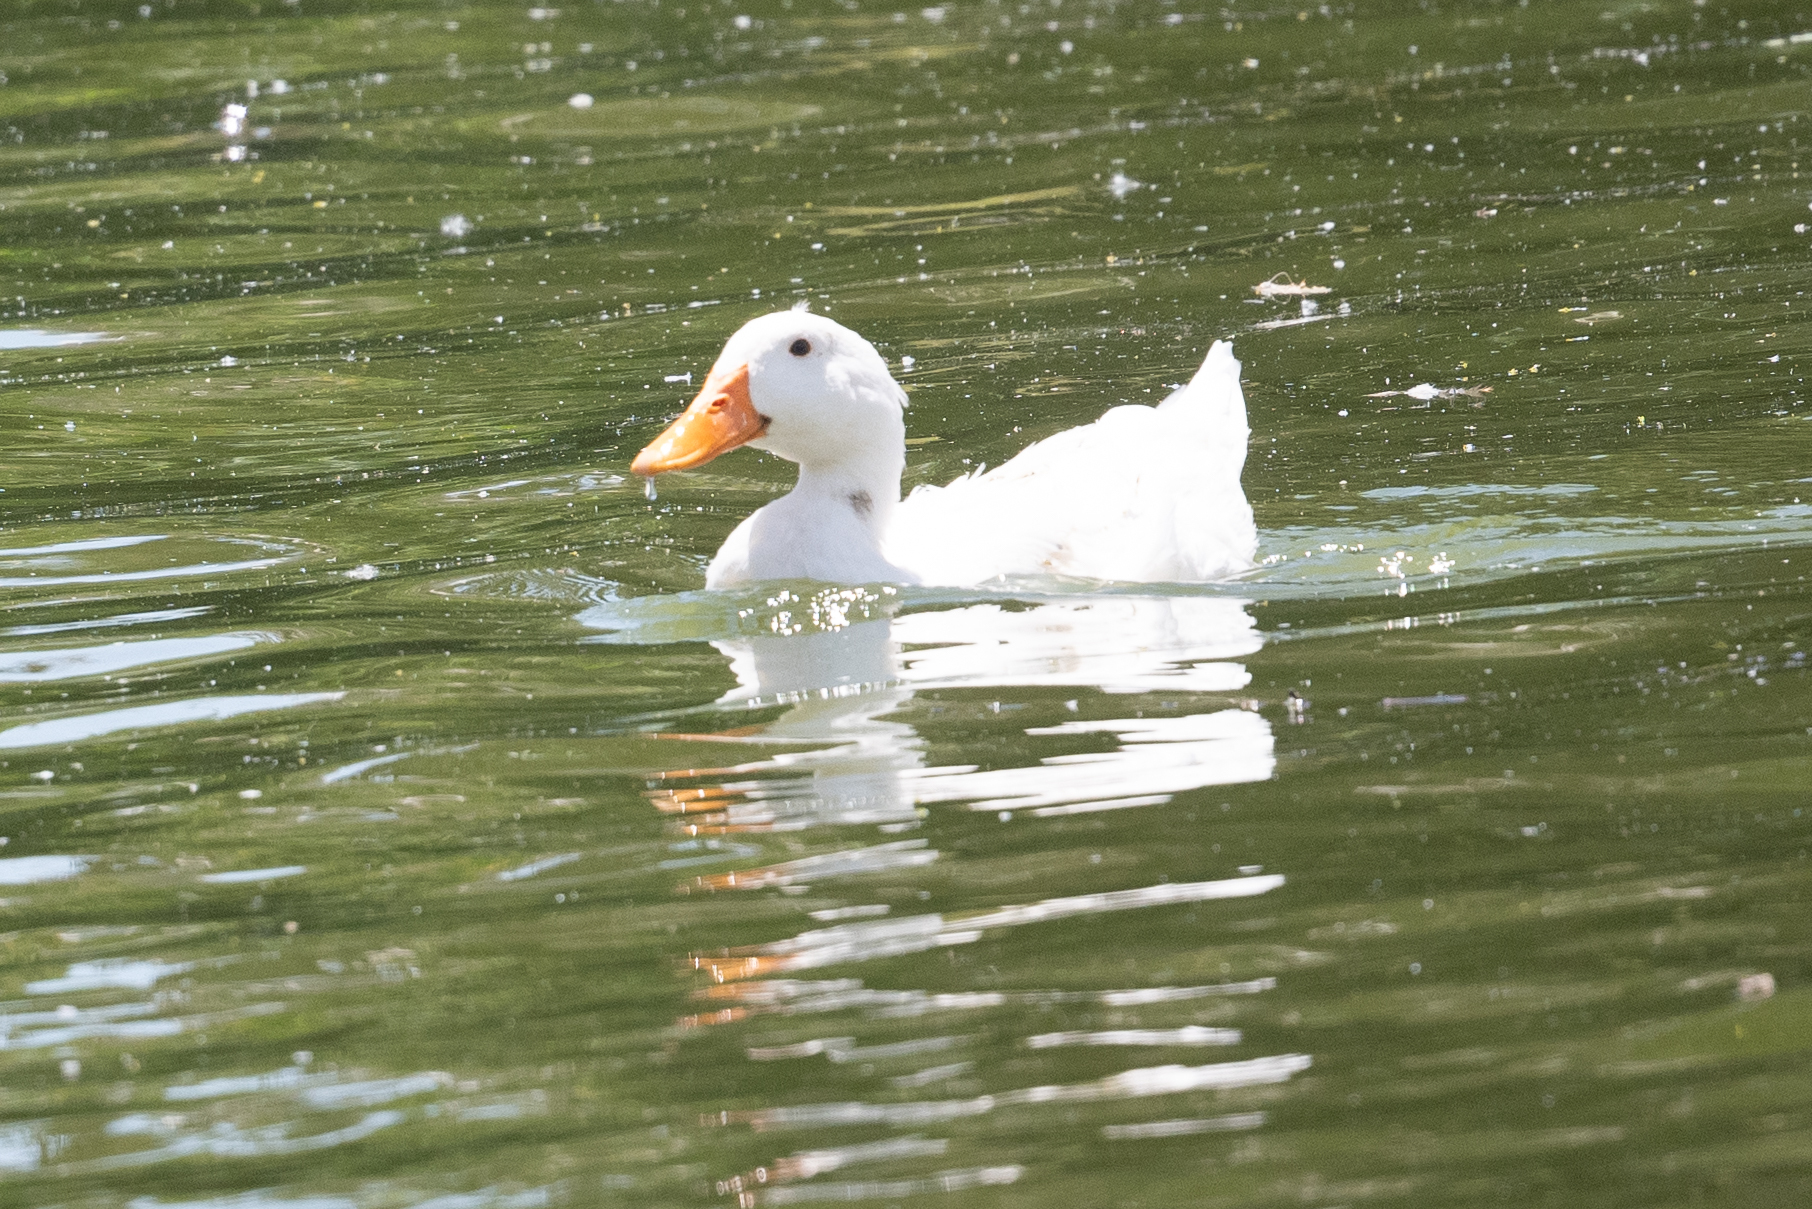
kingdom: Animalia
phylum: Chordata
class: Aves
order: Anseriformes
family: Anatidae
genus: Anas
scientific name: Anas platyrhynchos
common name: Mallard
